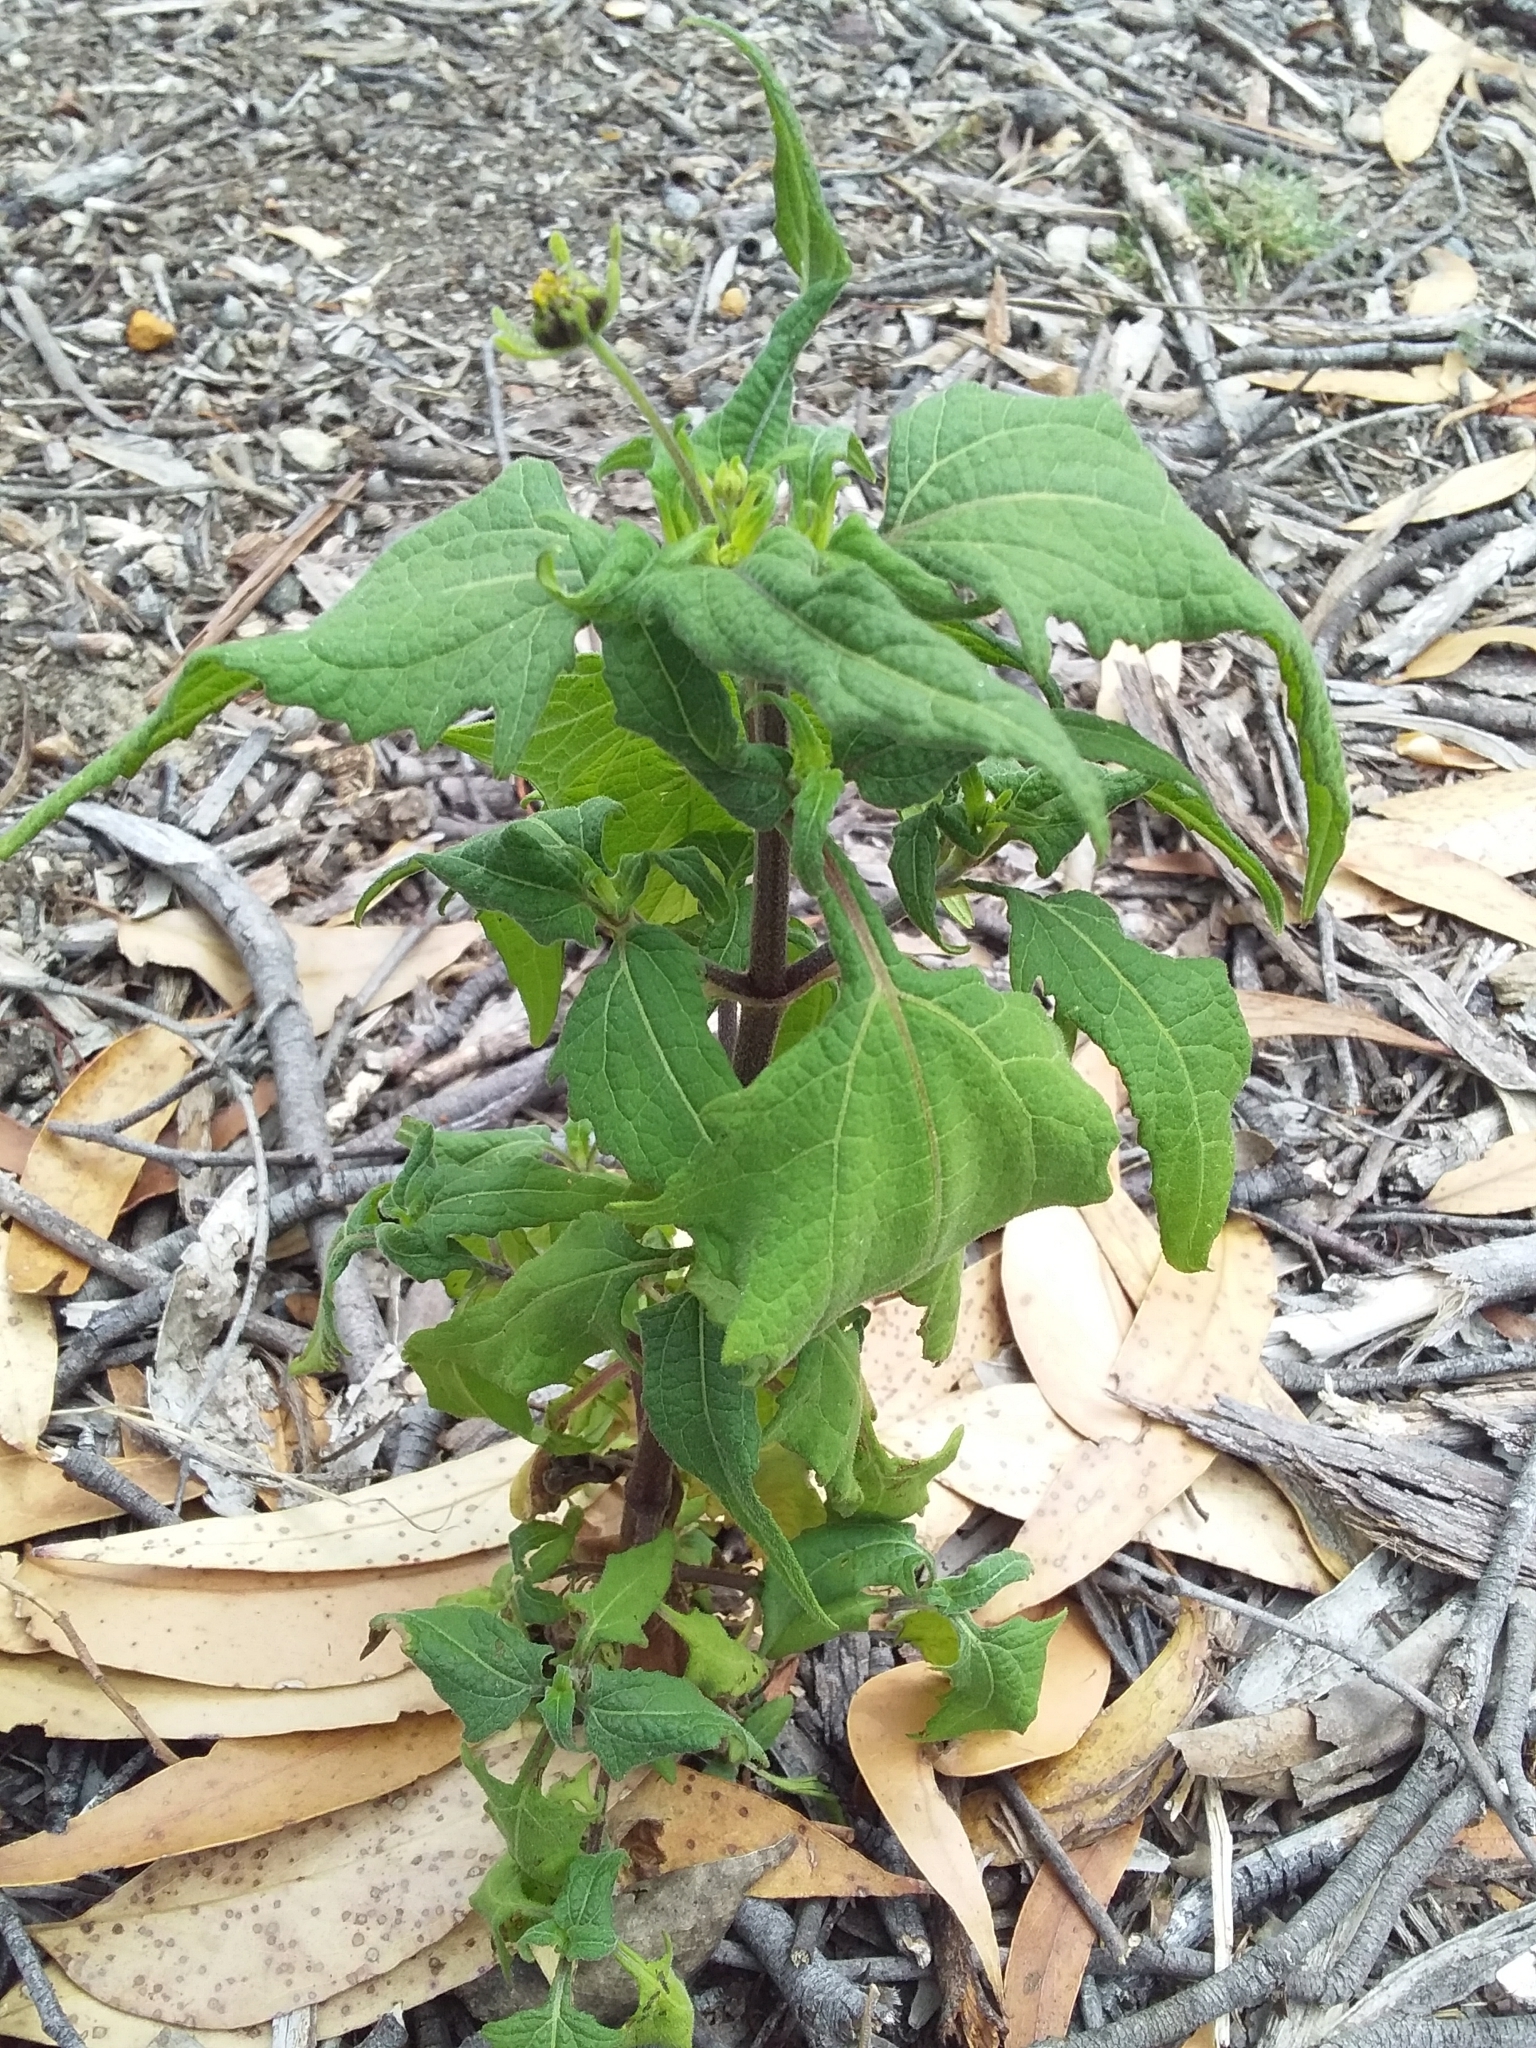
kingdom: Plantae
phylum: Tracheophyta
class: Magnoliopsida
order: Asterales
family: Asteraceae
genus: Sigesbeckia
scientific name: Sigesbeckia orientalis
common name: Eastern st paul's-wort
